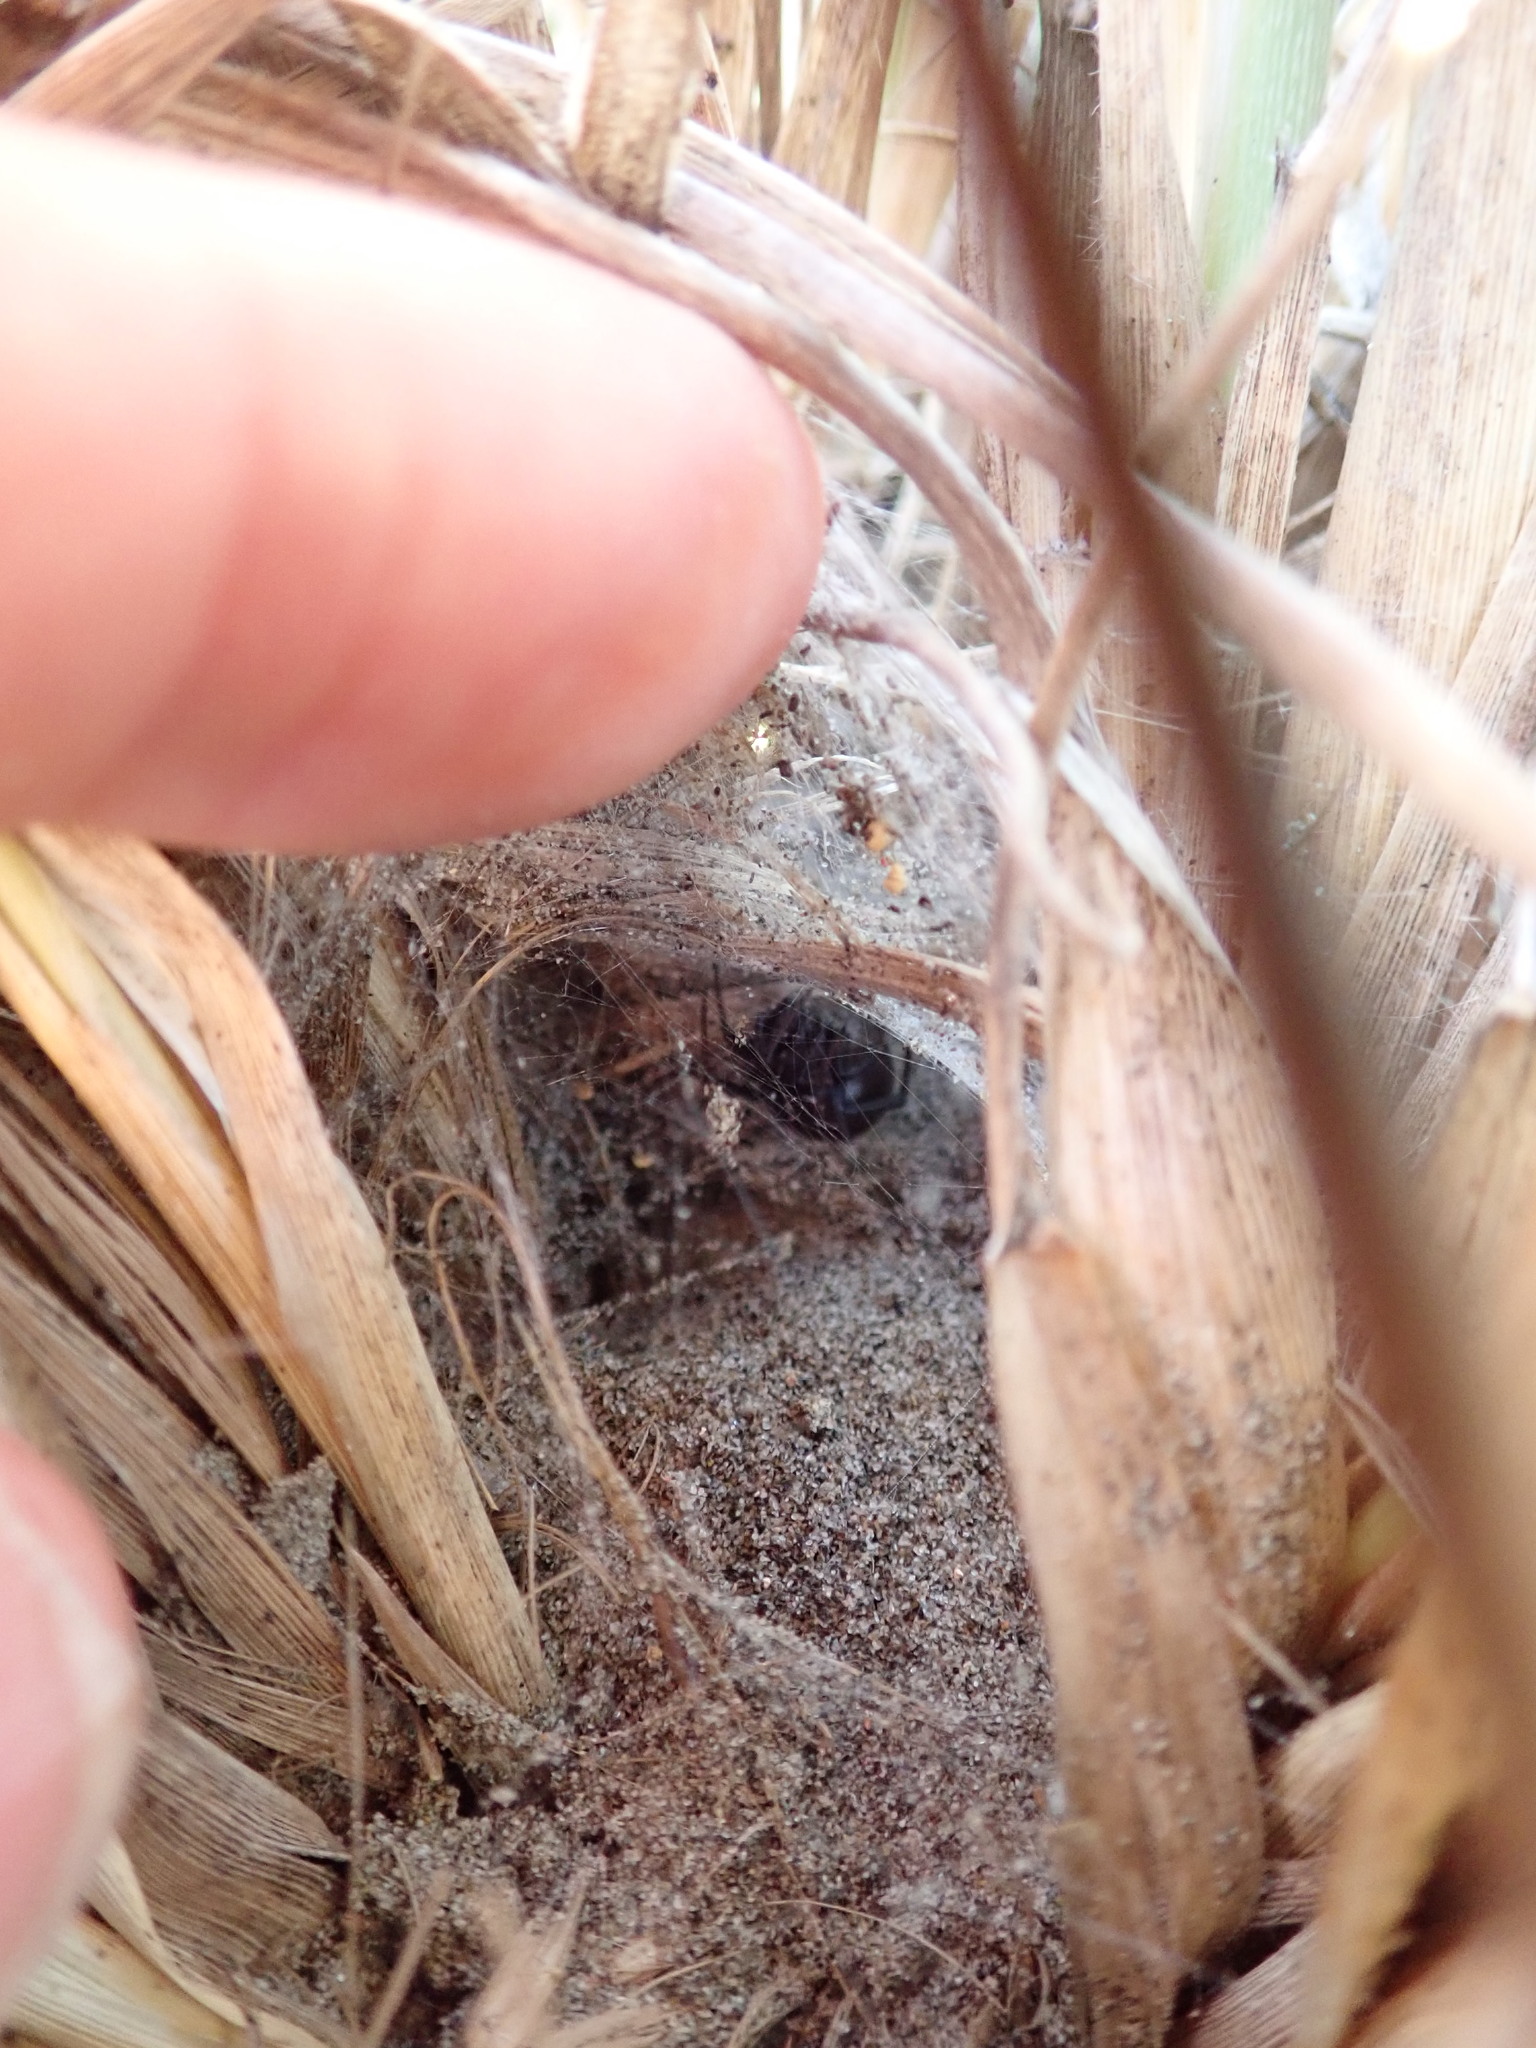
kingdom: Animalia
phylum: Arthropoda
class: Arachnida
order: Araneae
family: Theridiidae
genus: Latrodectus
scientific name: Latrodectus katipo
